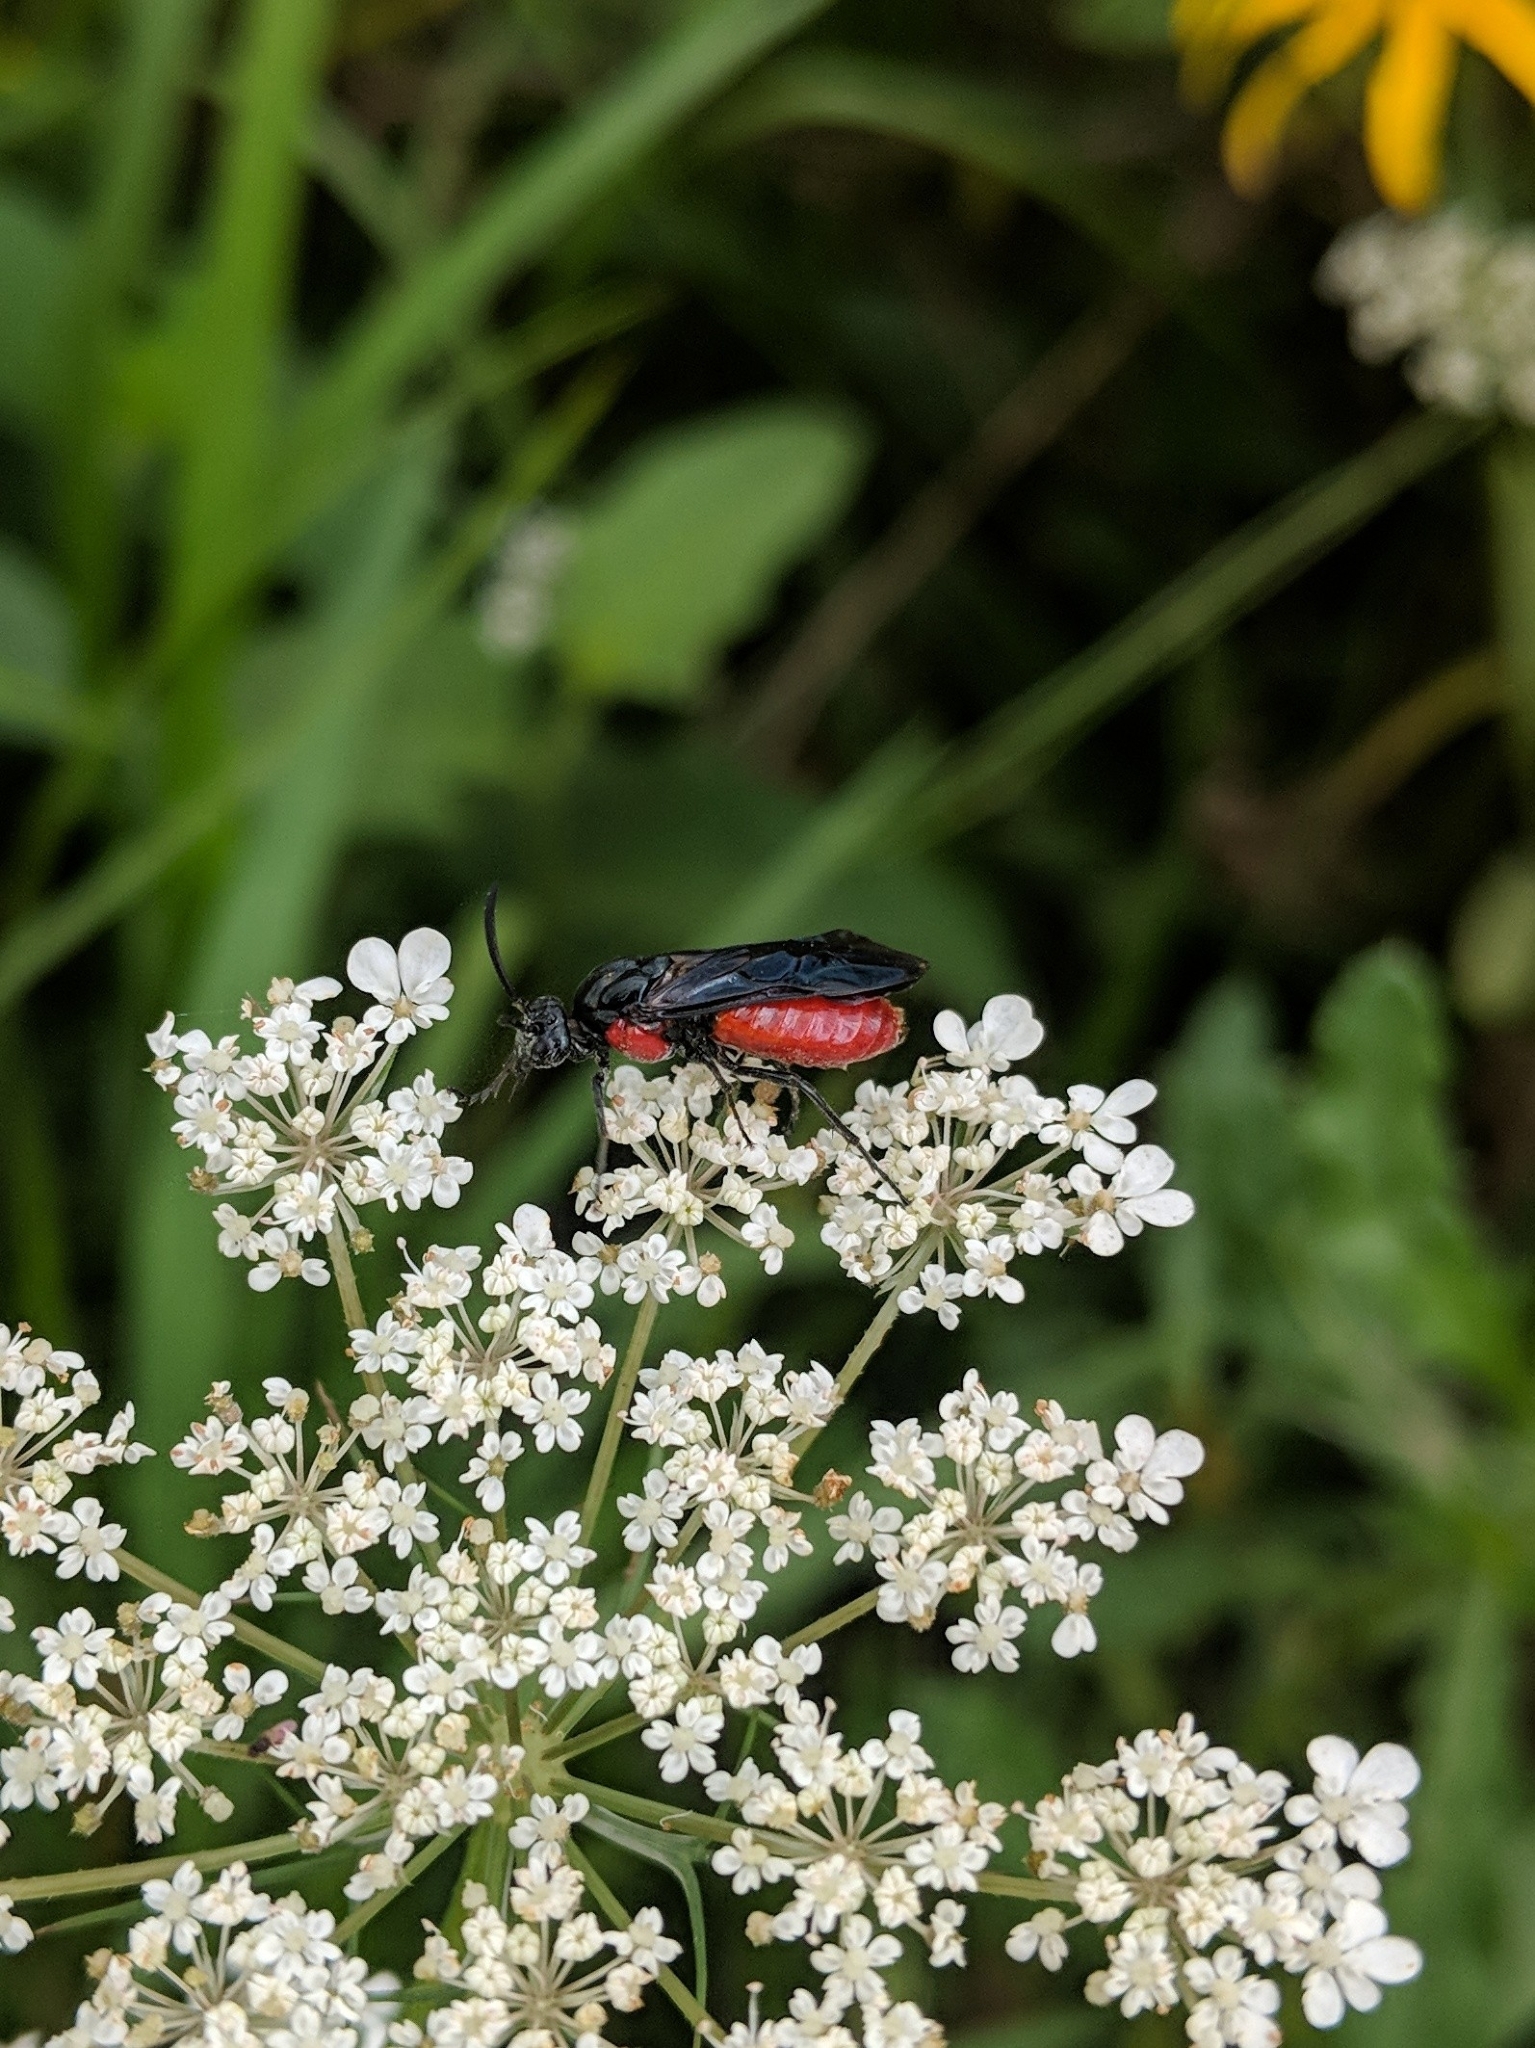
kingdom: Animalia
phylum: Arthropoda
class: Insecta
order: Hymenoptera
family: Argidae
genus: Arge
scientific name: Arge humeralis
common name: Poison ivy sawfly
